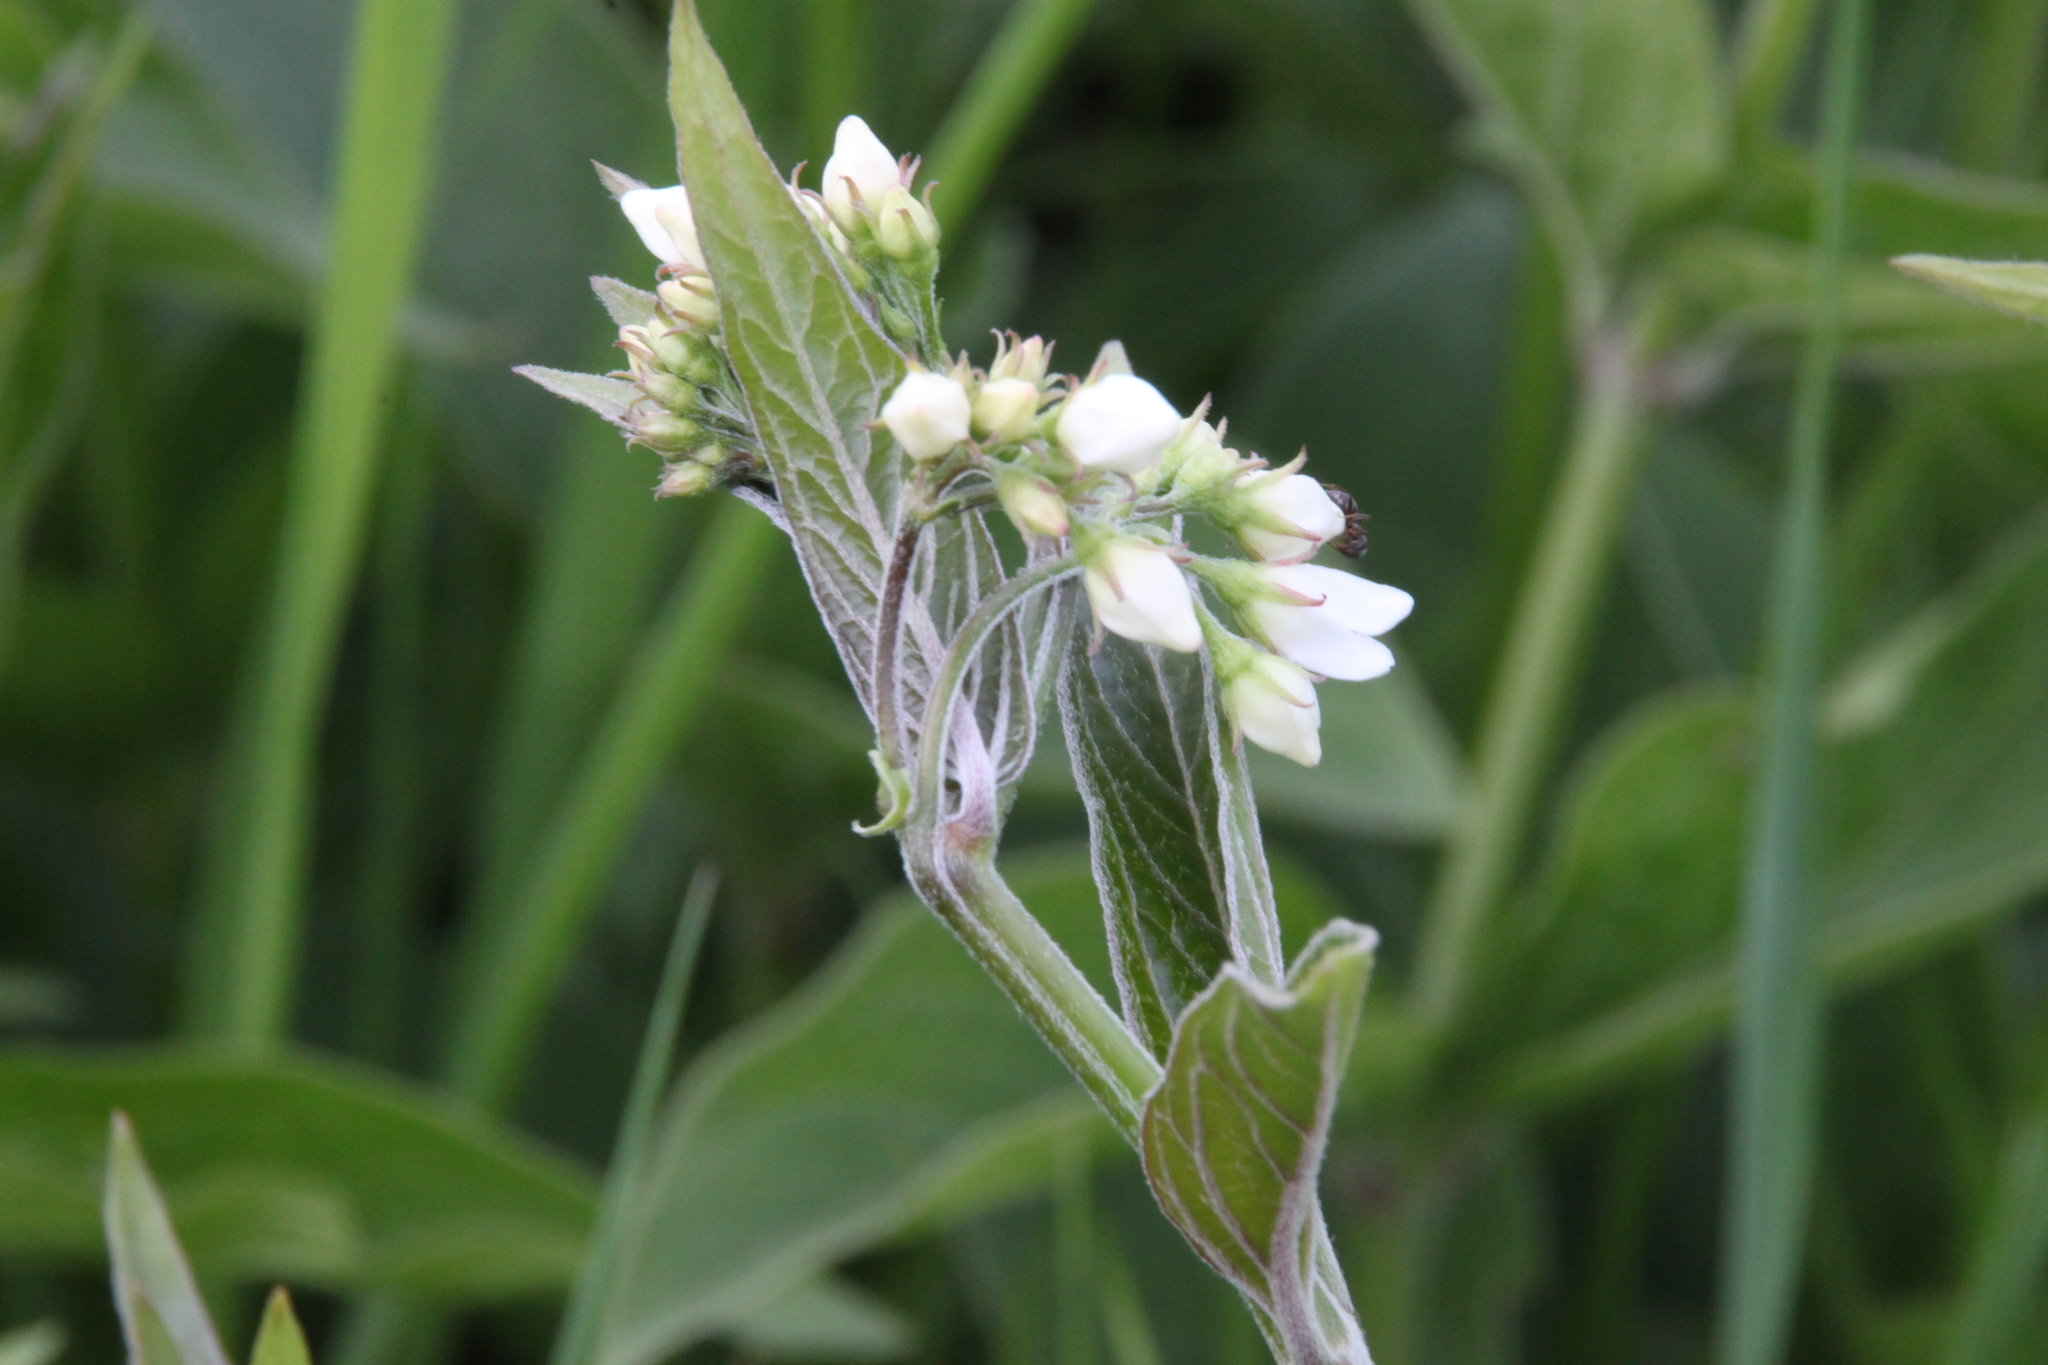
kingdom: Plantae
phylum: Tracheophyta
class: Magnoliopsida
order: Gentianales
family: Apocynaceae
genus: Vincetoxicum
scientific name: Vincetoxicum hirundinaria
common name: White swallowwort
